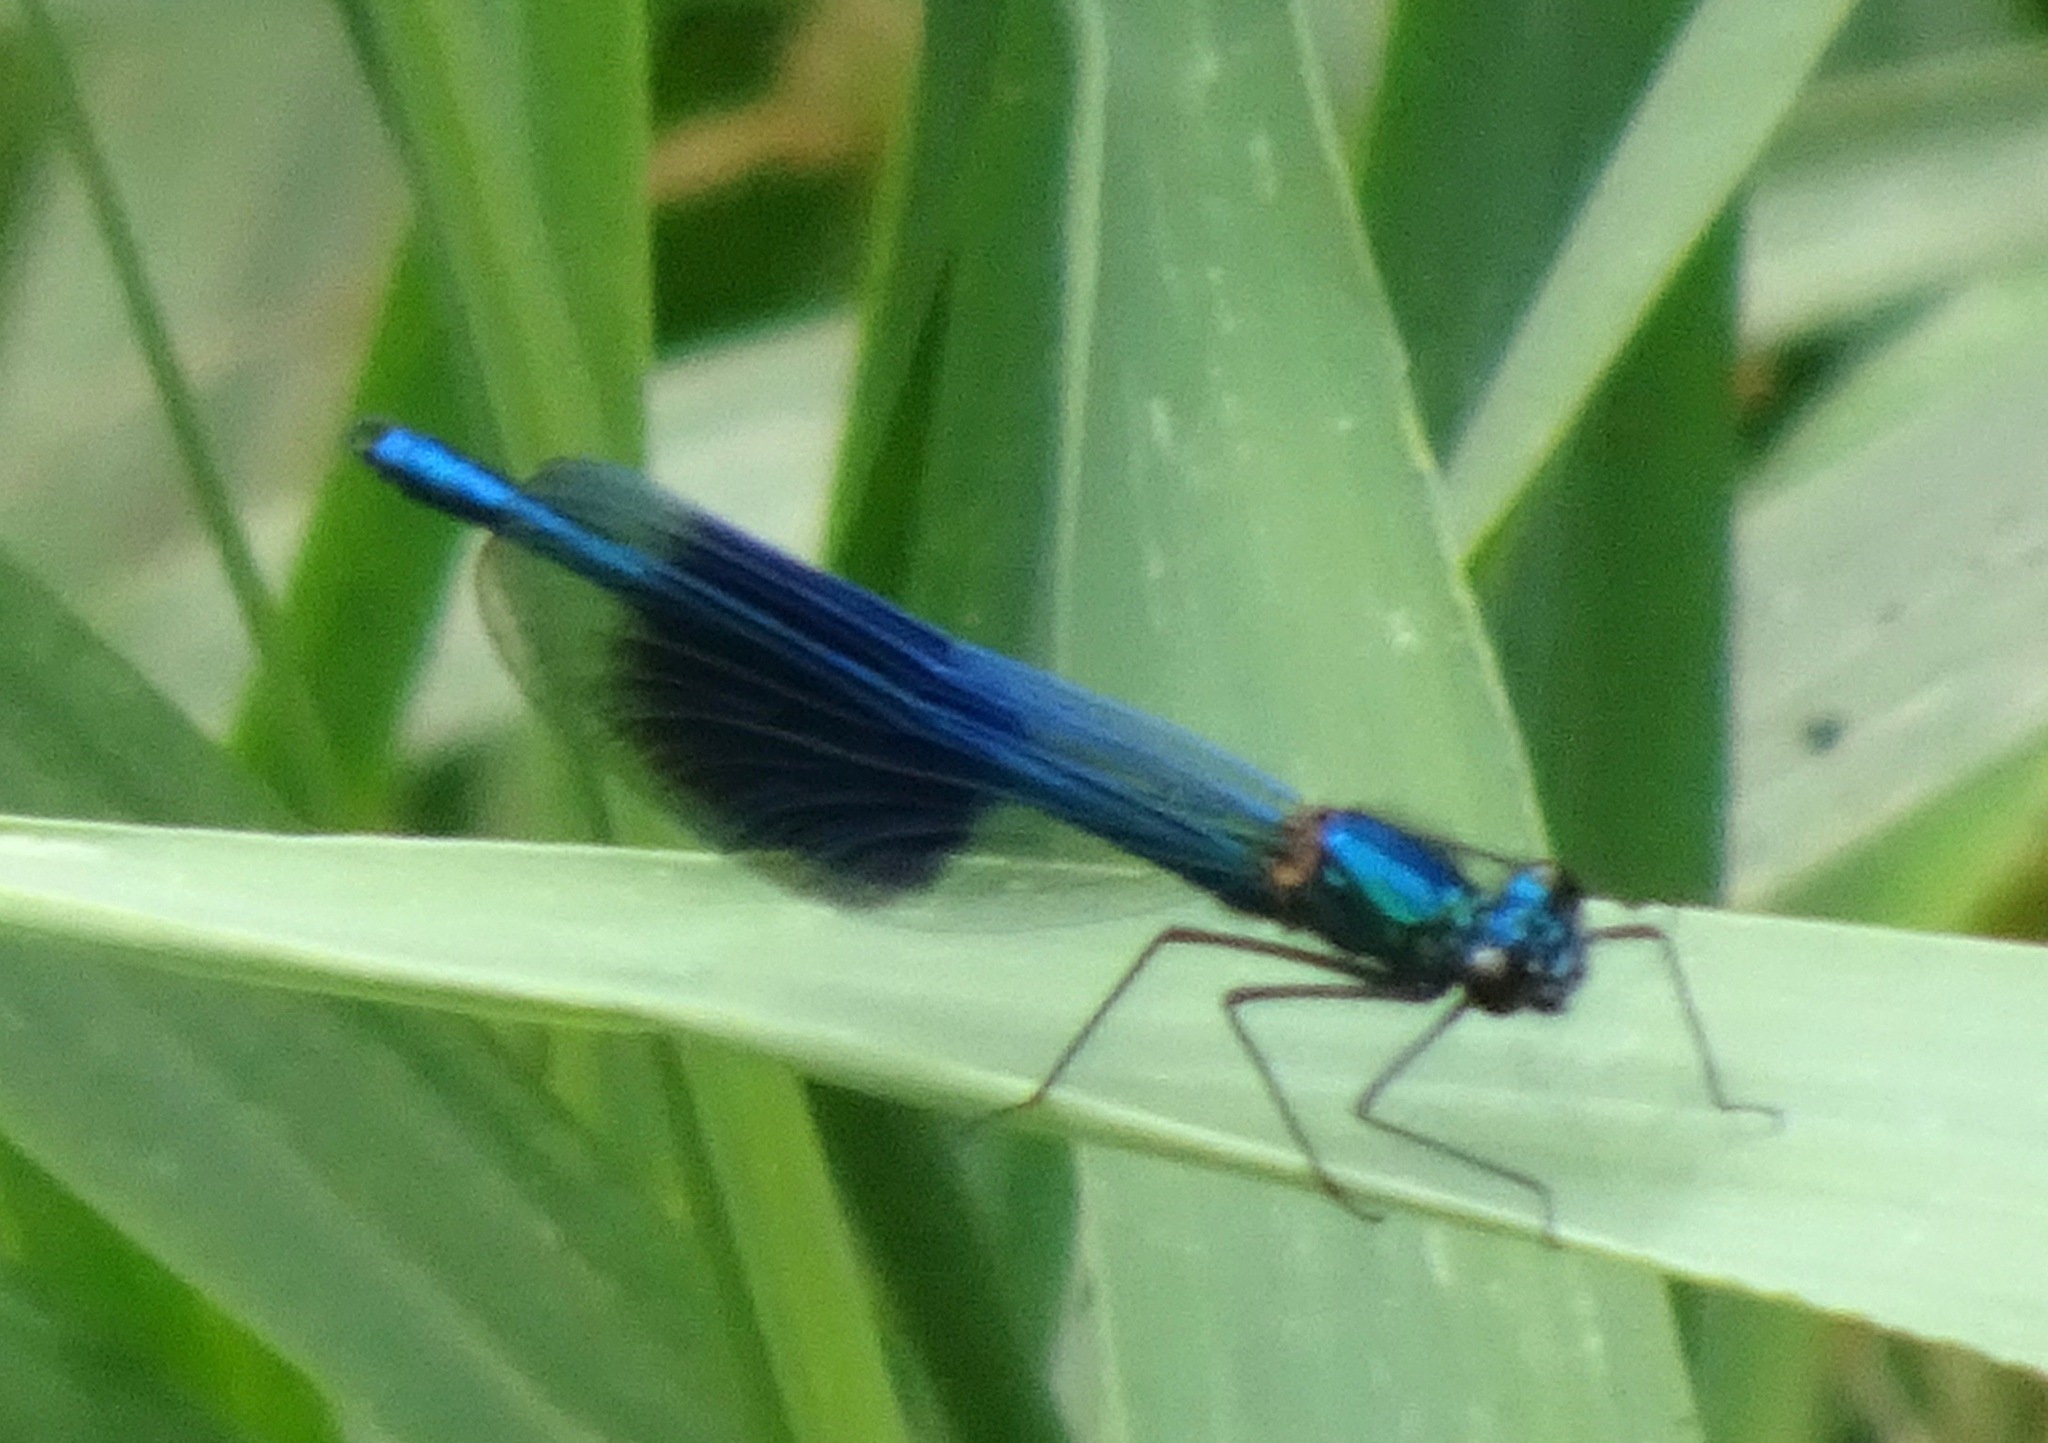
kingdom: Animalia
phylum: Arthropoda
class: Insecta
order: Odonata
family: Calopterygidae
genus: Calopteryx
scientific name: Calopteryx splendens
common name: Banded demoiselle
